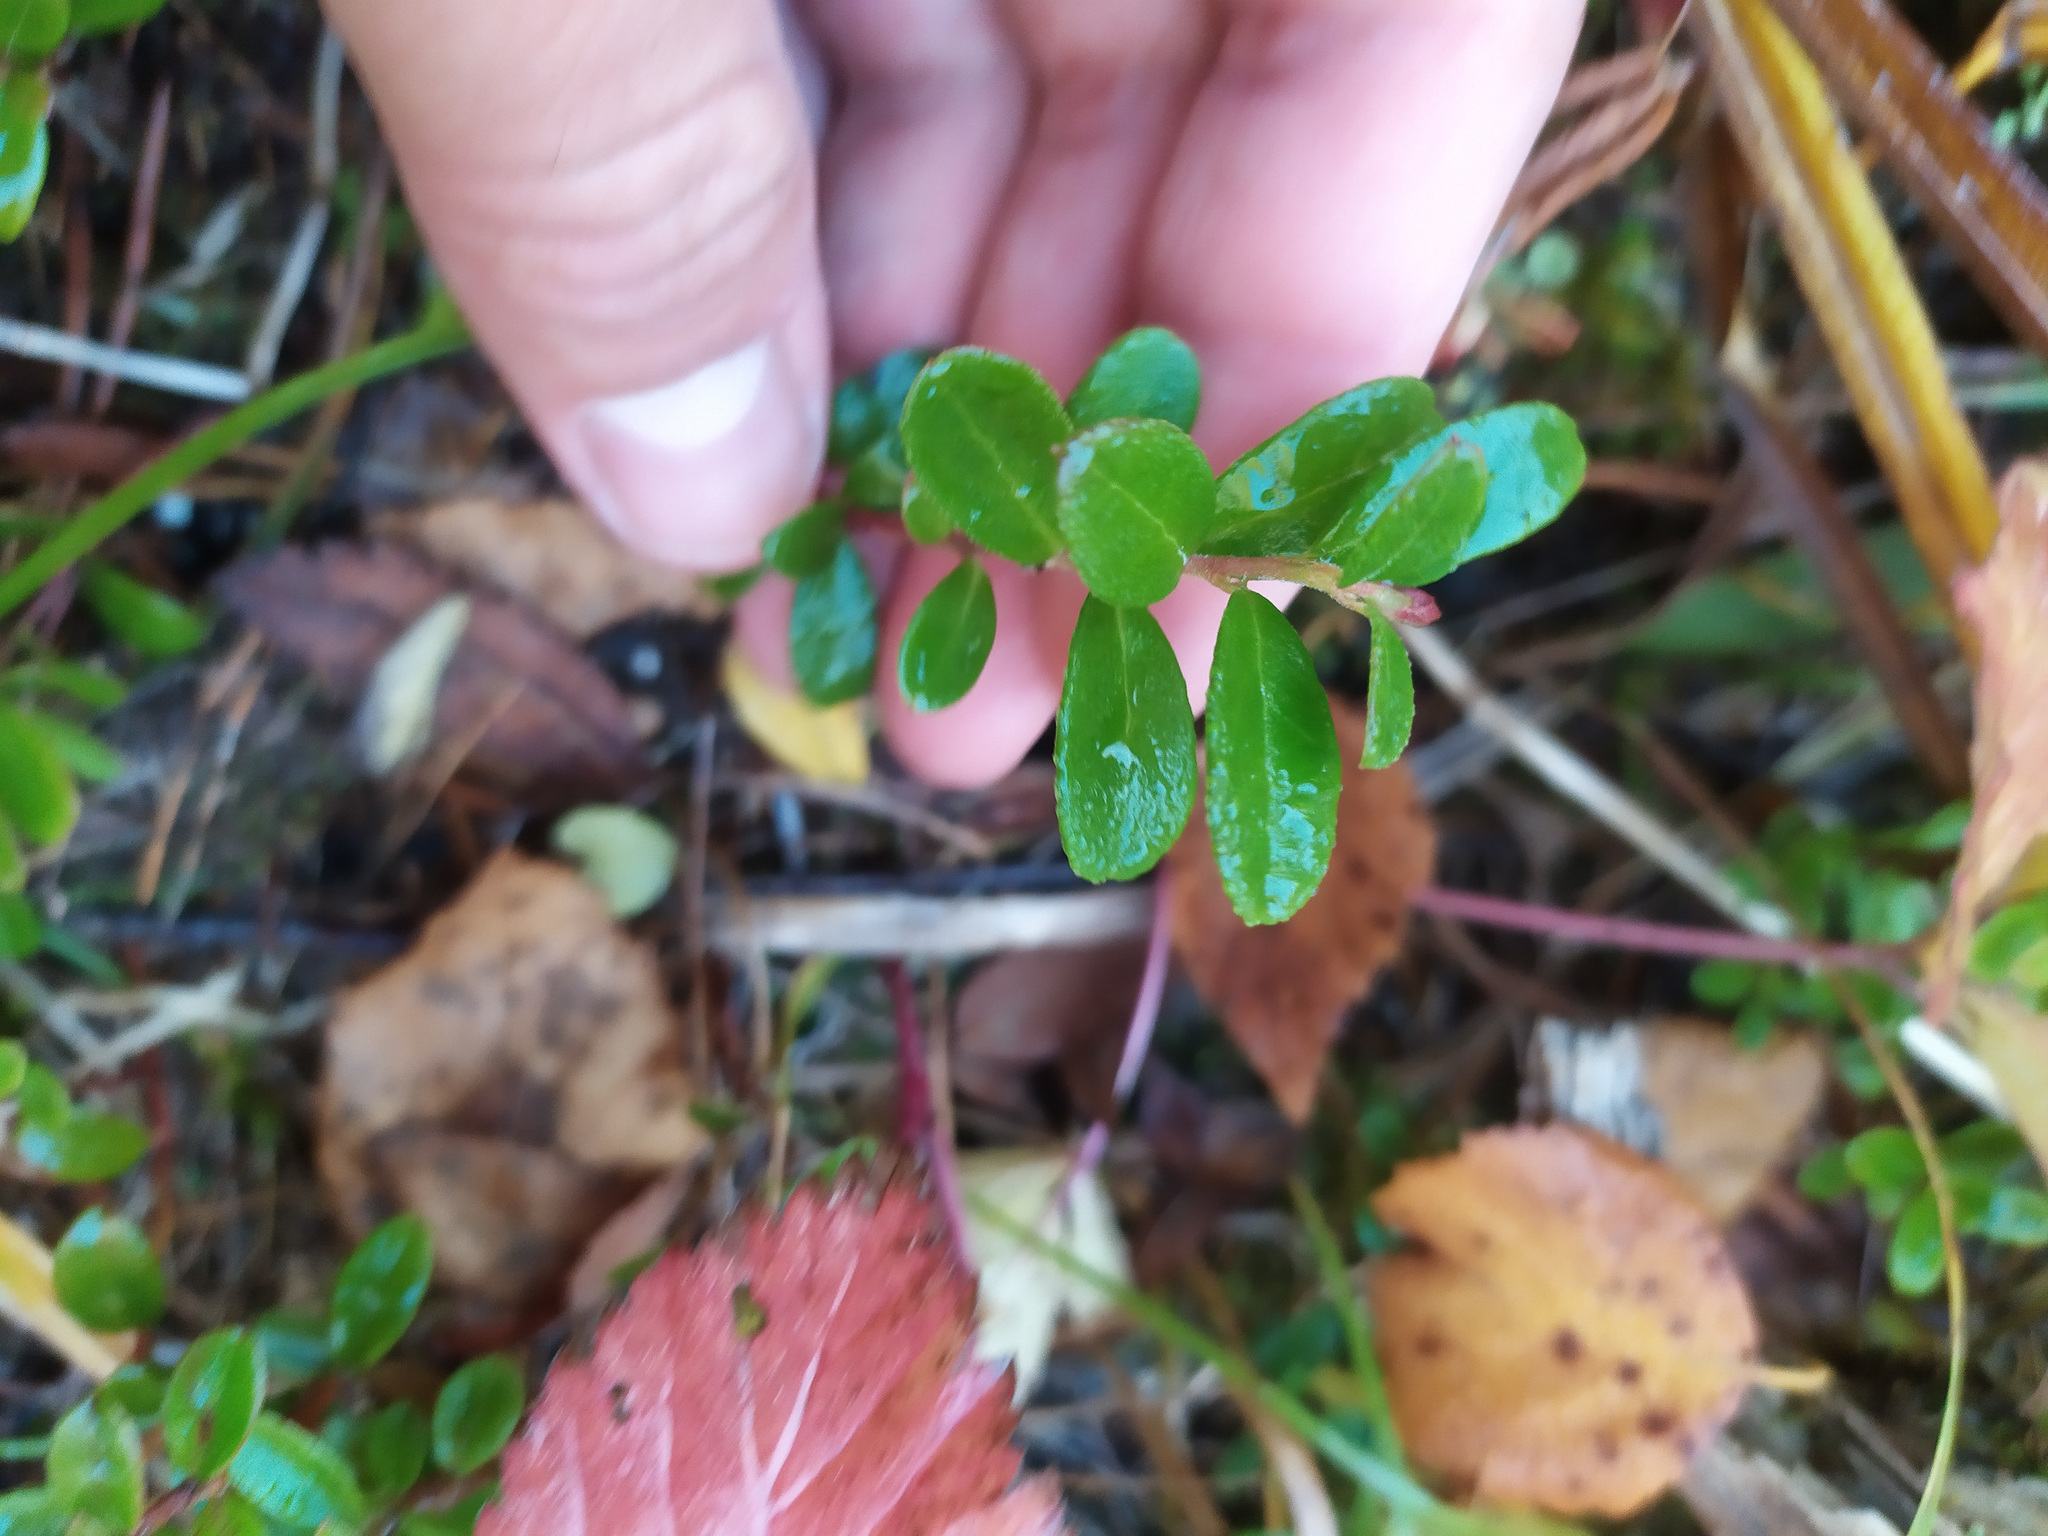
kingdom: Plantae
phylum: Tracheophyta
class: Magnoliopsida
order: Ericales
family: Ericaceae
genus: Vaccinium
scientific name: Vaccinium vitis-idaea
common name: Cowberry
